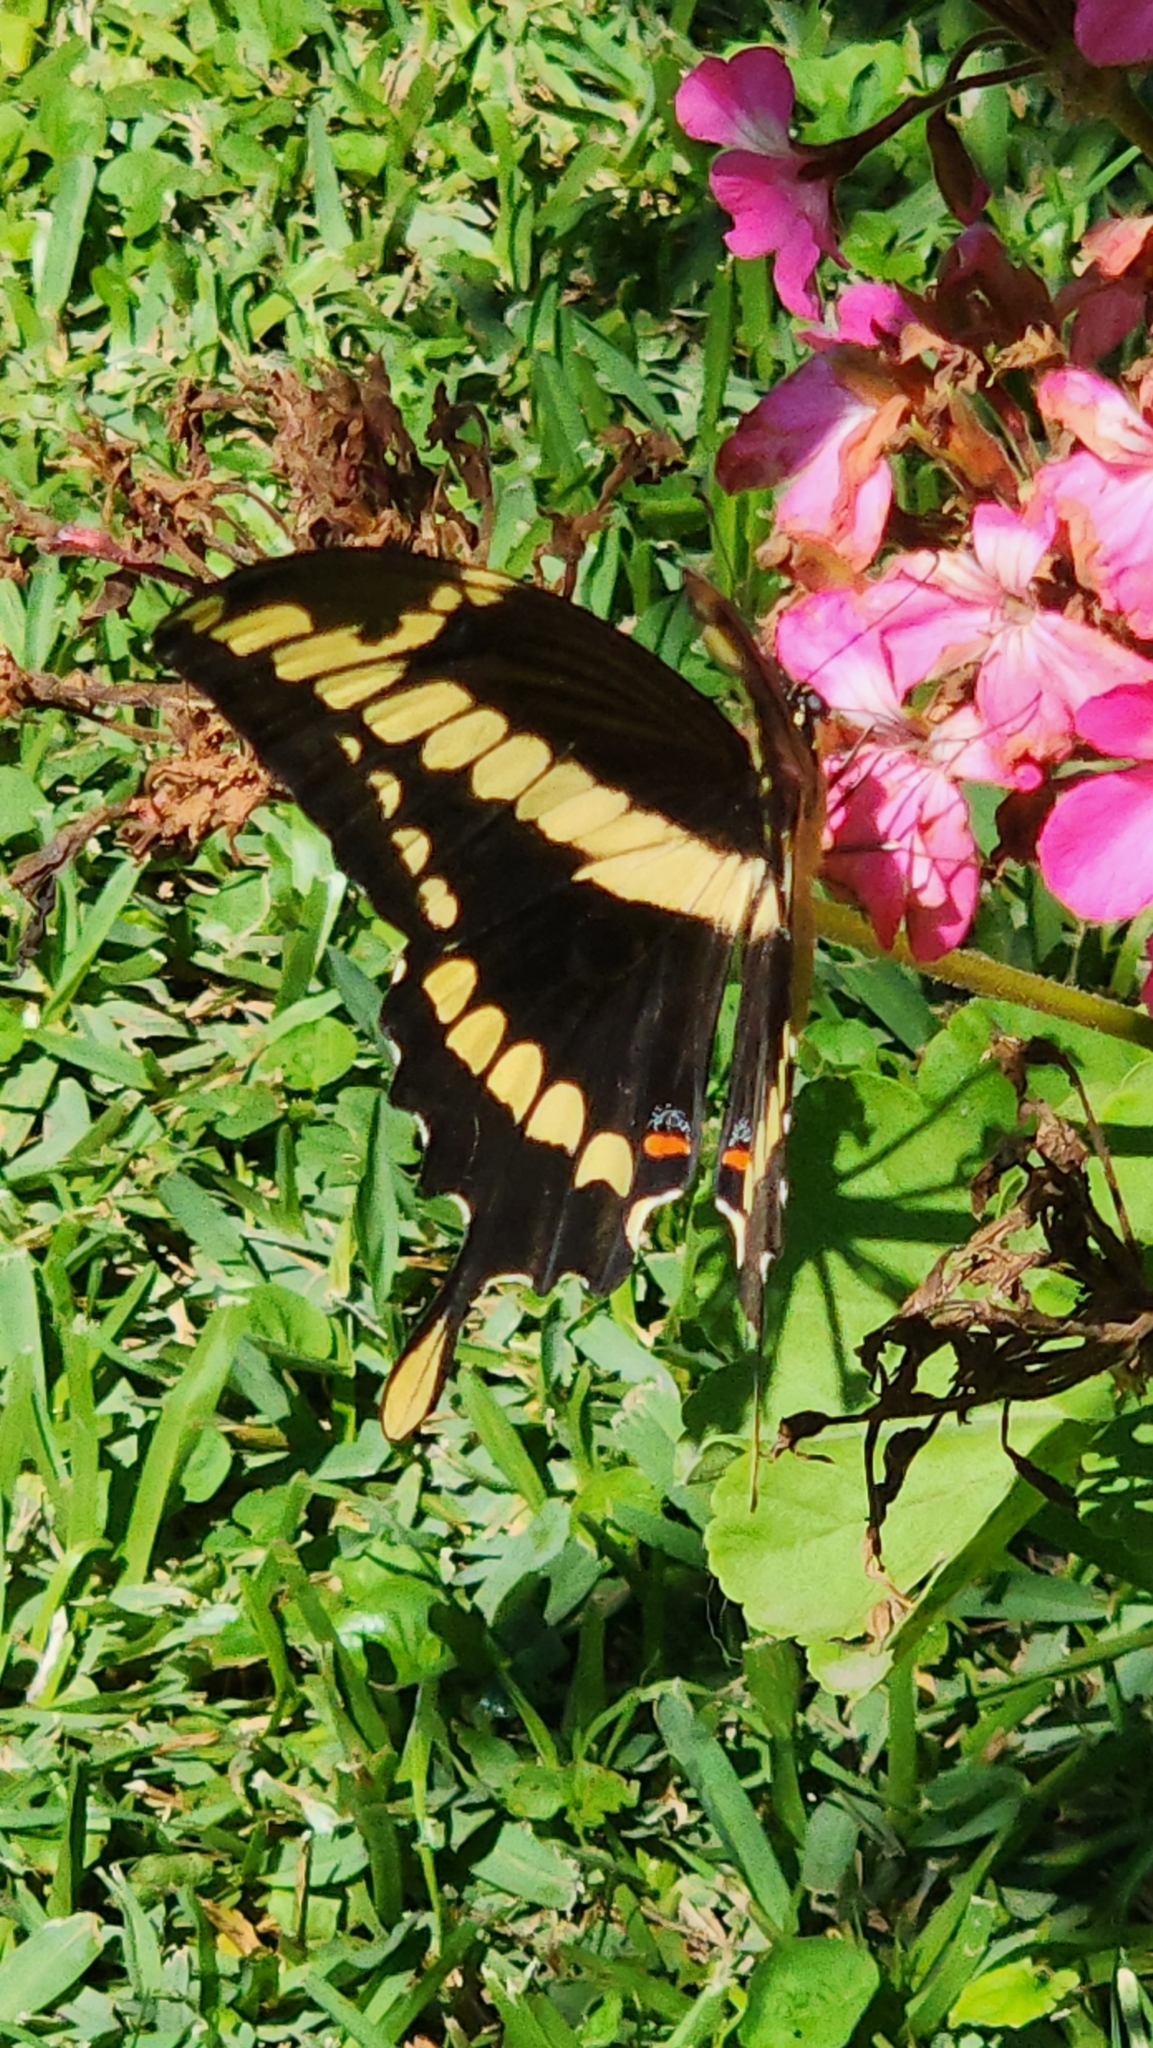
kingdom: Animalia
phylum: Arthropoda
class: Insecta
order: Lepidoptera
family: Papilionidae
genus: Papilio
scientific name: Papilio thoas
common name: King swallowtail
